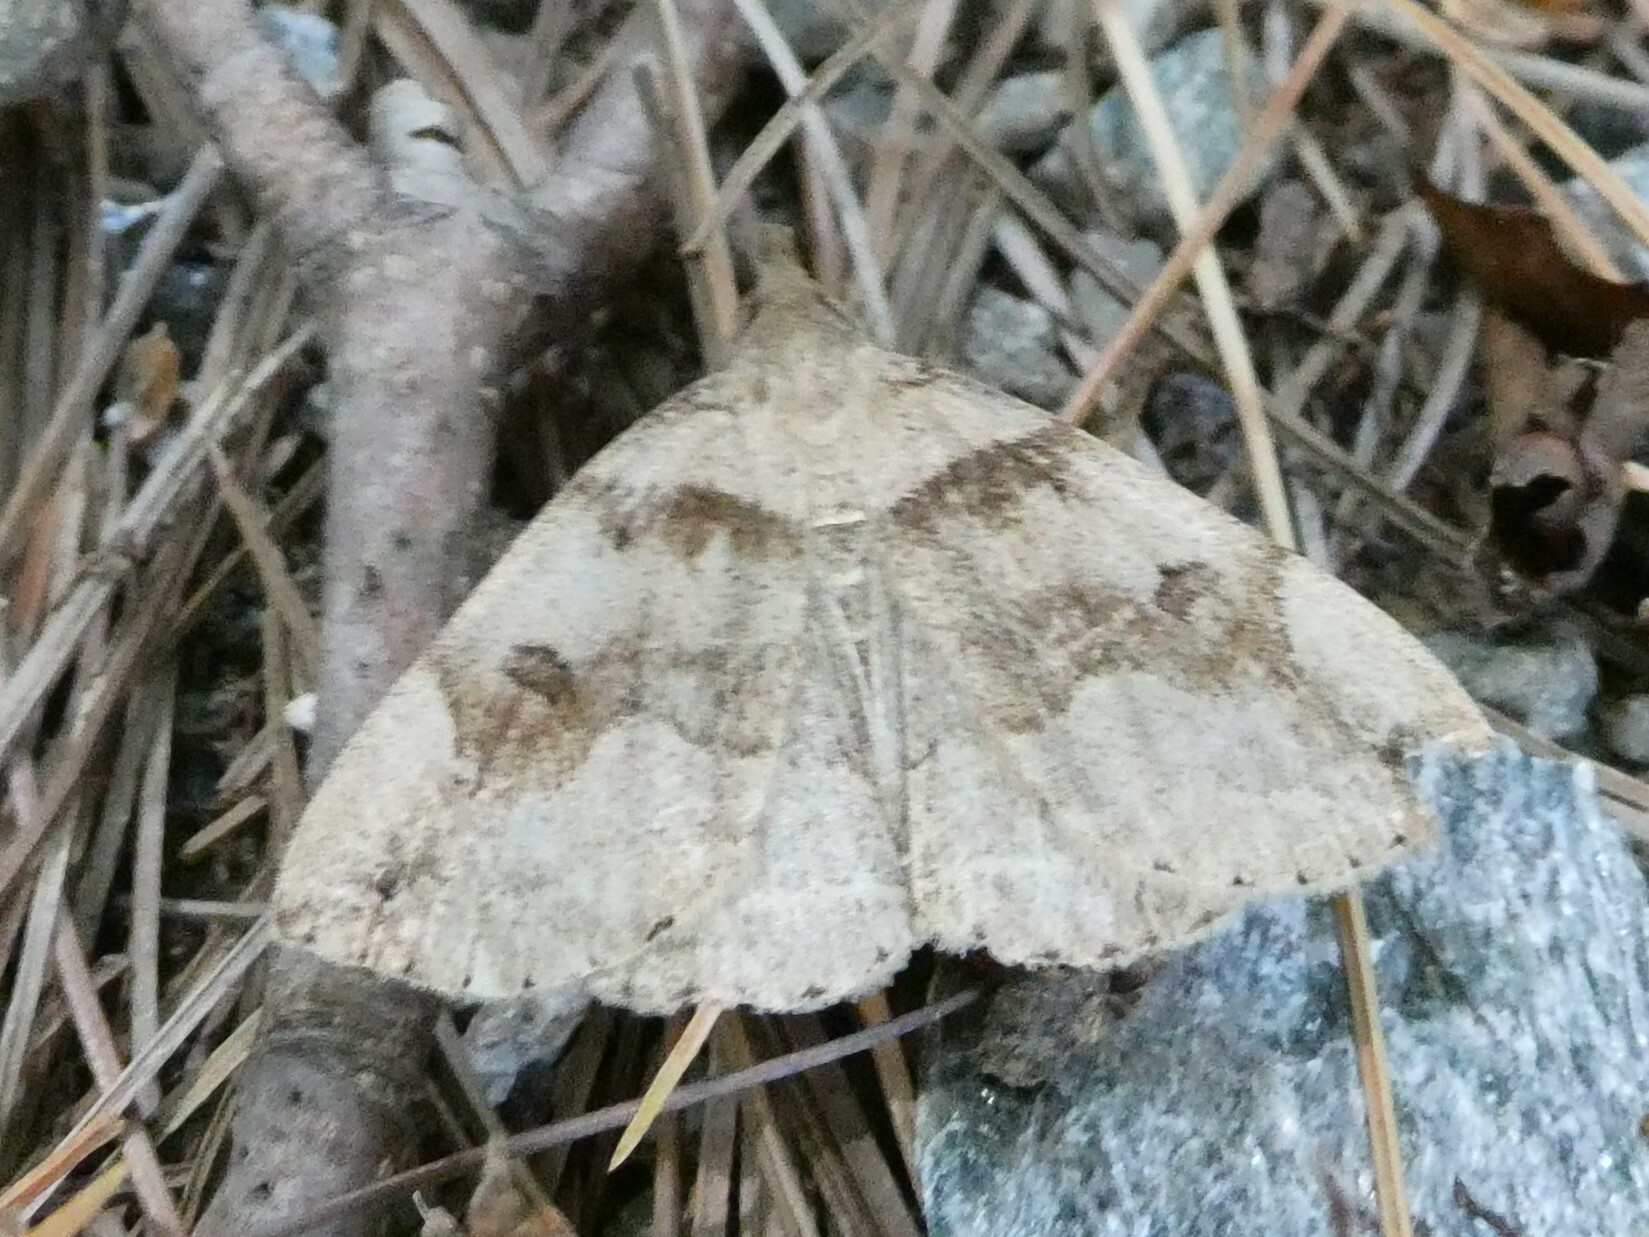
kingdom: Animalia
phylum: Arthropoda
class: Insecta
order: Lepidoptera
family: Erebidae
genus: Zanclognatha
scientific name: Zanclognatha laevigata
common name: Variable fan-foot
